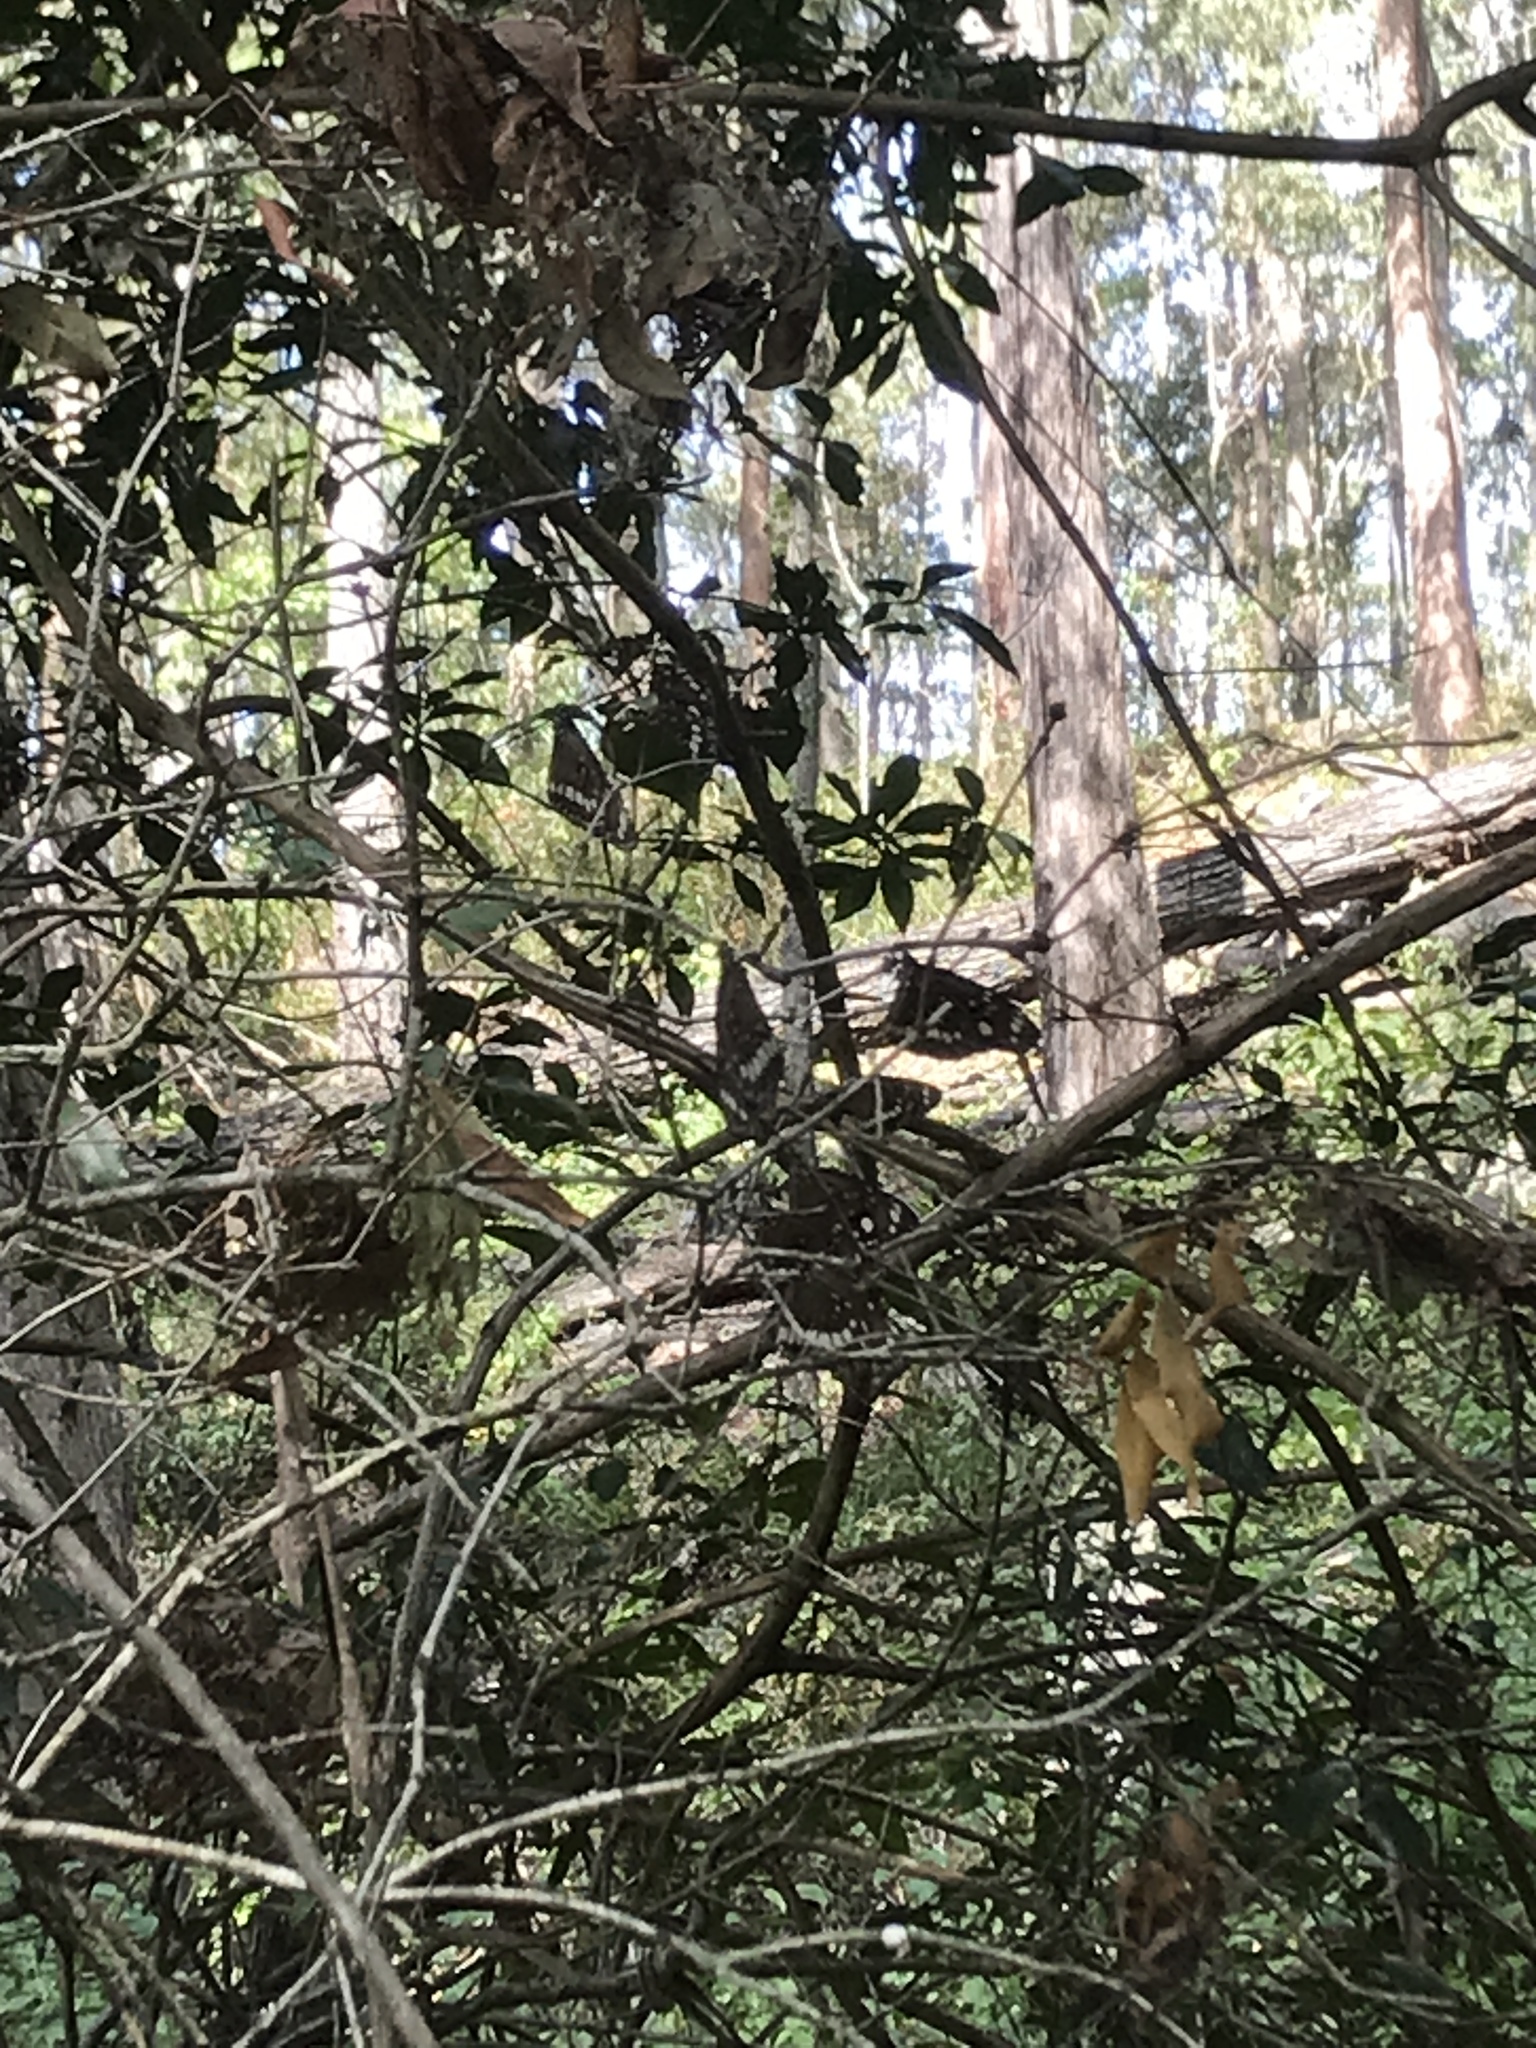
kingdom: Animalia
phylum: Arthropoda
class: Insecta
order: Lepidoptera
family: Nymphalidae
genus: Euploea
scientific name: Euploea core
